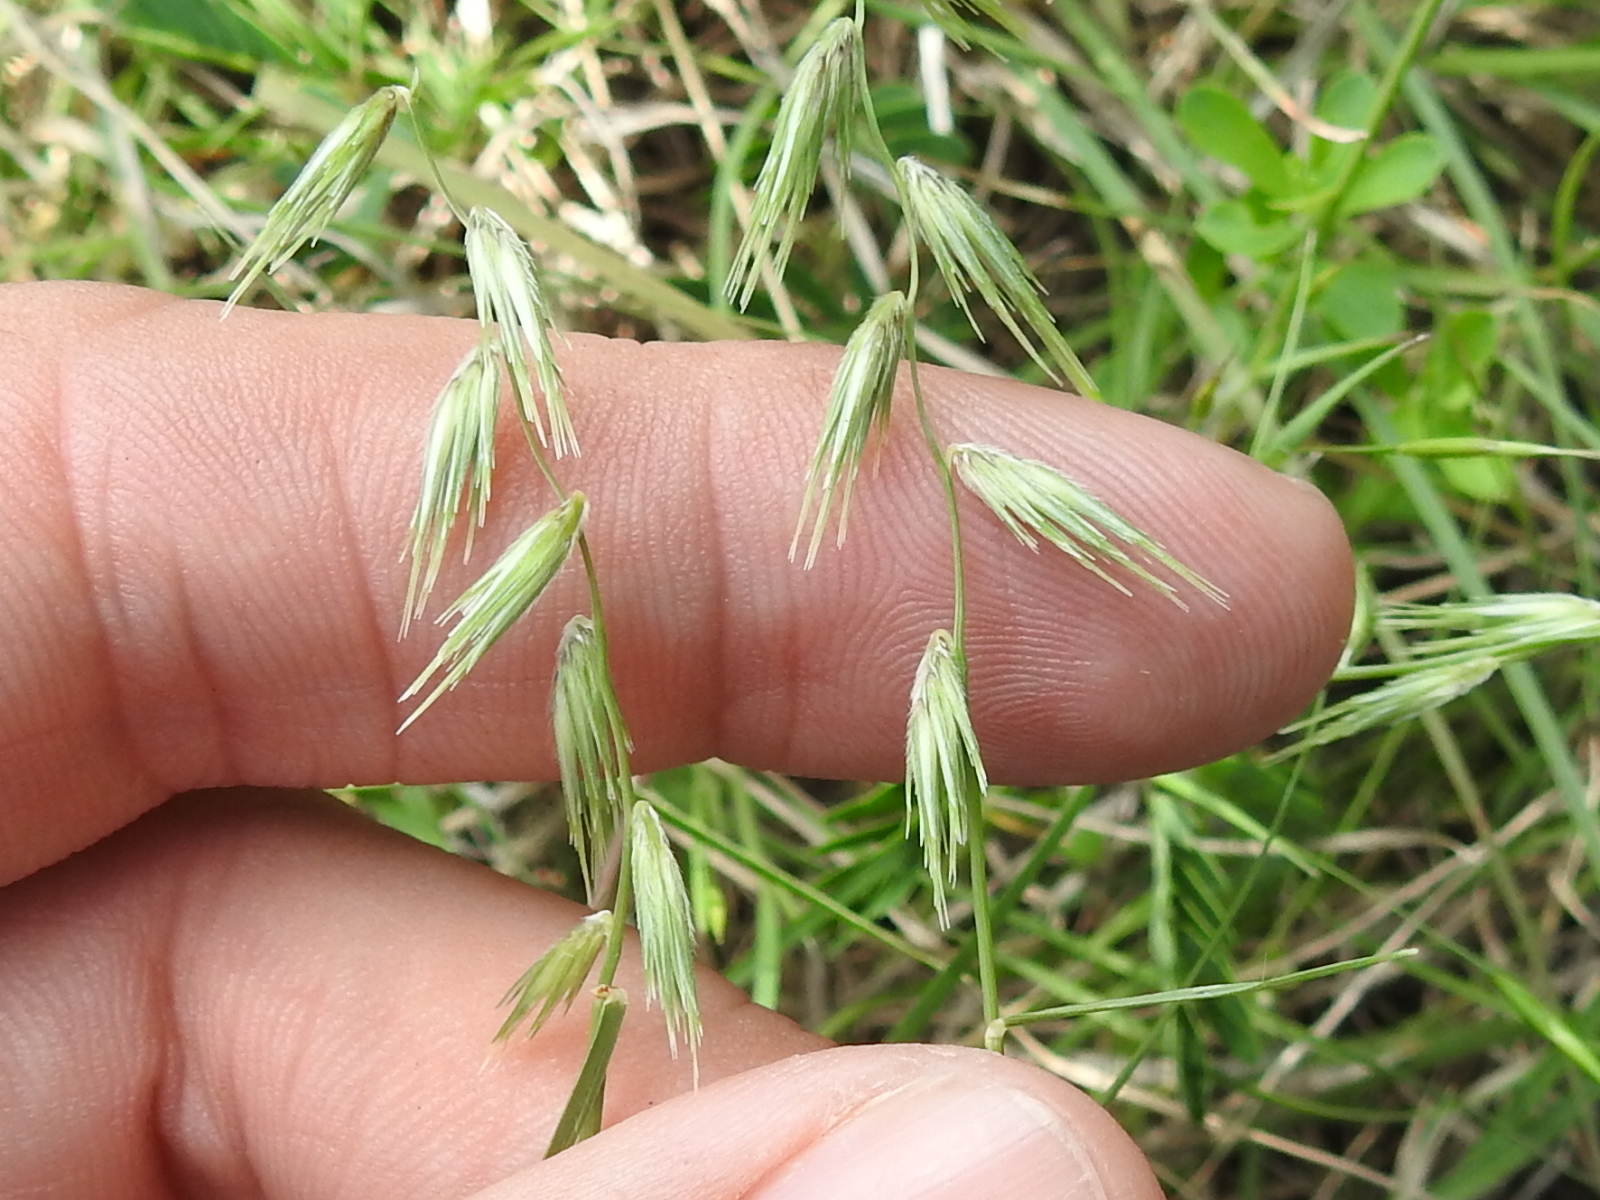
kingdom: Plantae
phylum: Tracheophyta
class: Liliopsida
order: Poales
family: Poaceae
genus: Bouteloua
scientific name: Bouteloua rigidiseta
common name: Texas grama
